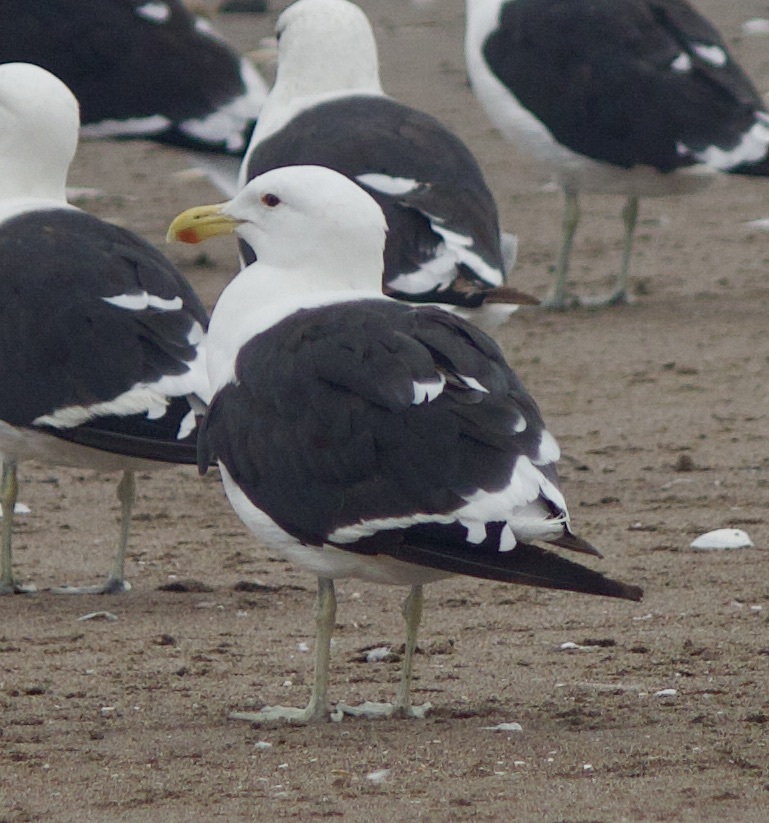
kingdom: Animalia
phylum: Chordata
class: Aves
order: Charadriiformes
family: Laridae
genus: Larus
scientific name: Larus dominicanus
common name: Kelp gull
